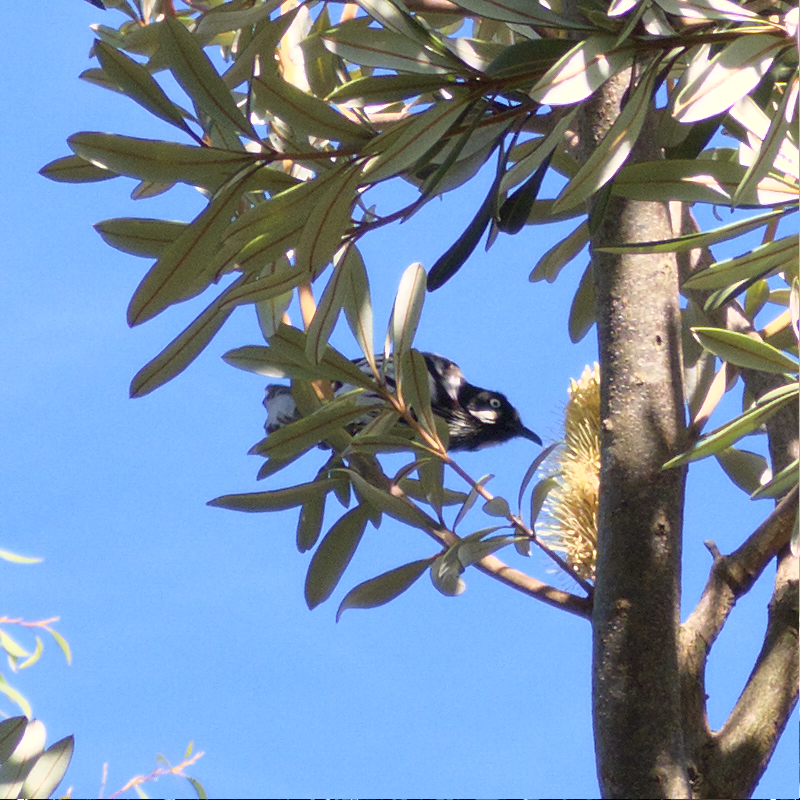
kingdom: Animalia
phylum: Chordata
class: Aves
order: Passeriformes
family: Meliphagidae
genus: Phylidonyris
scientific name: Phylidonyris novaehollandiae
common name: New holland honeyeater
